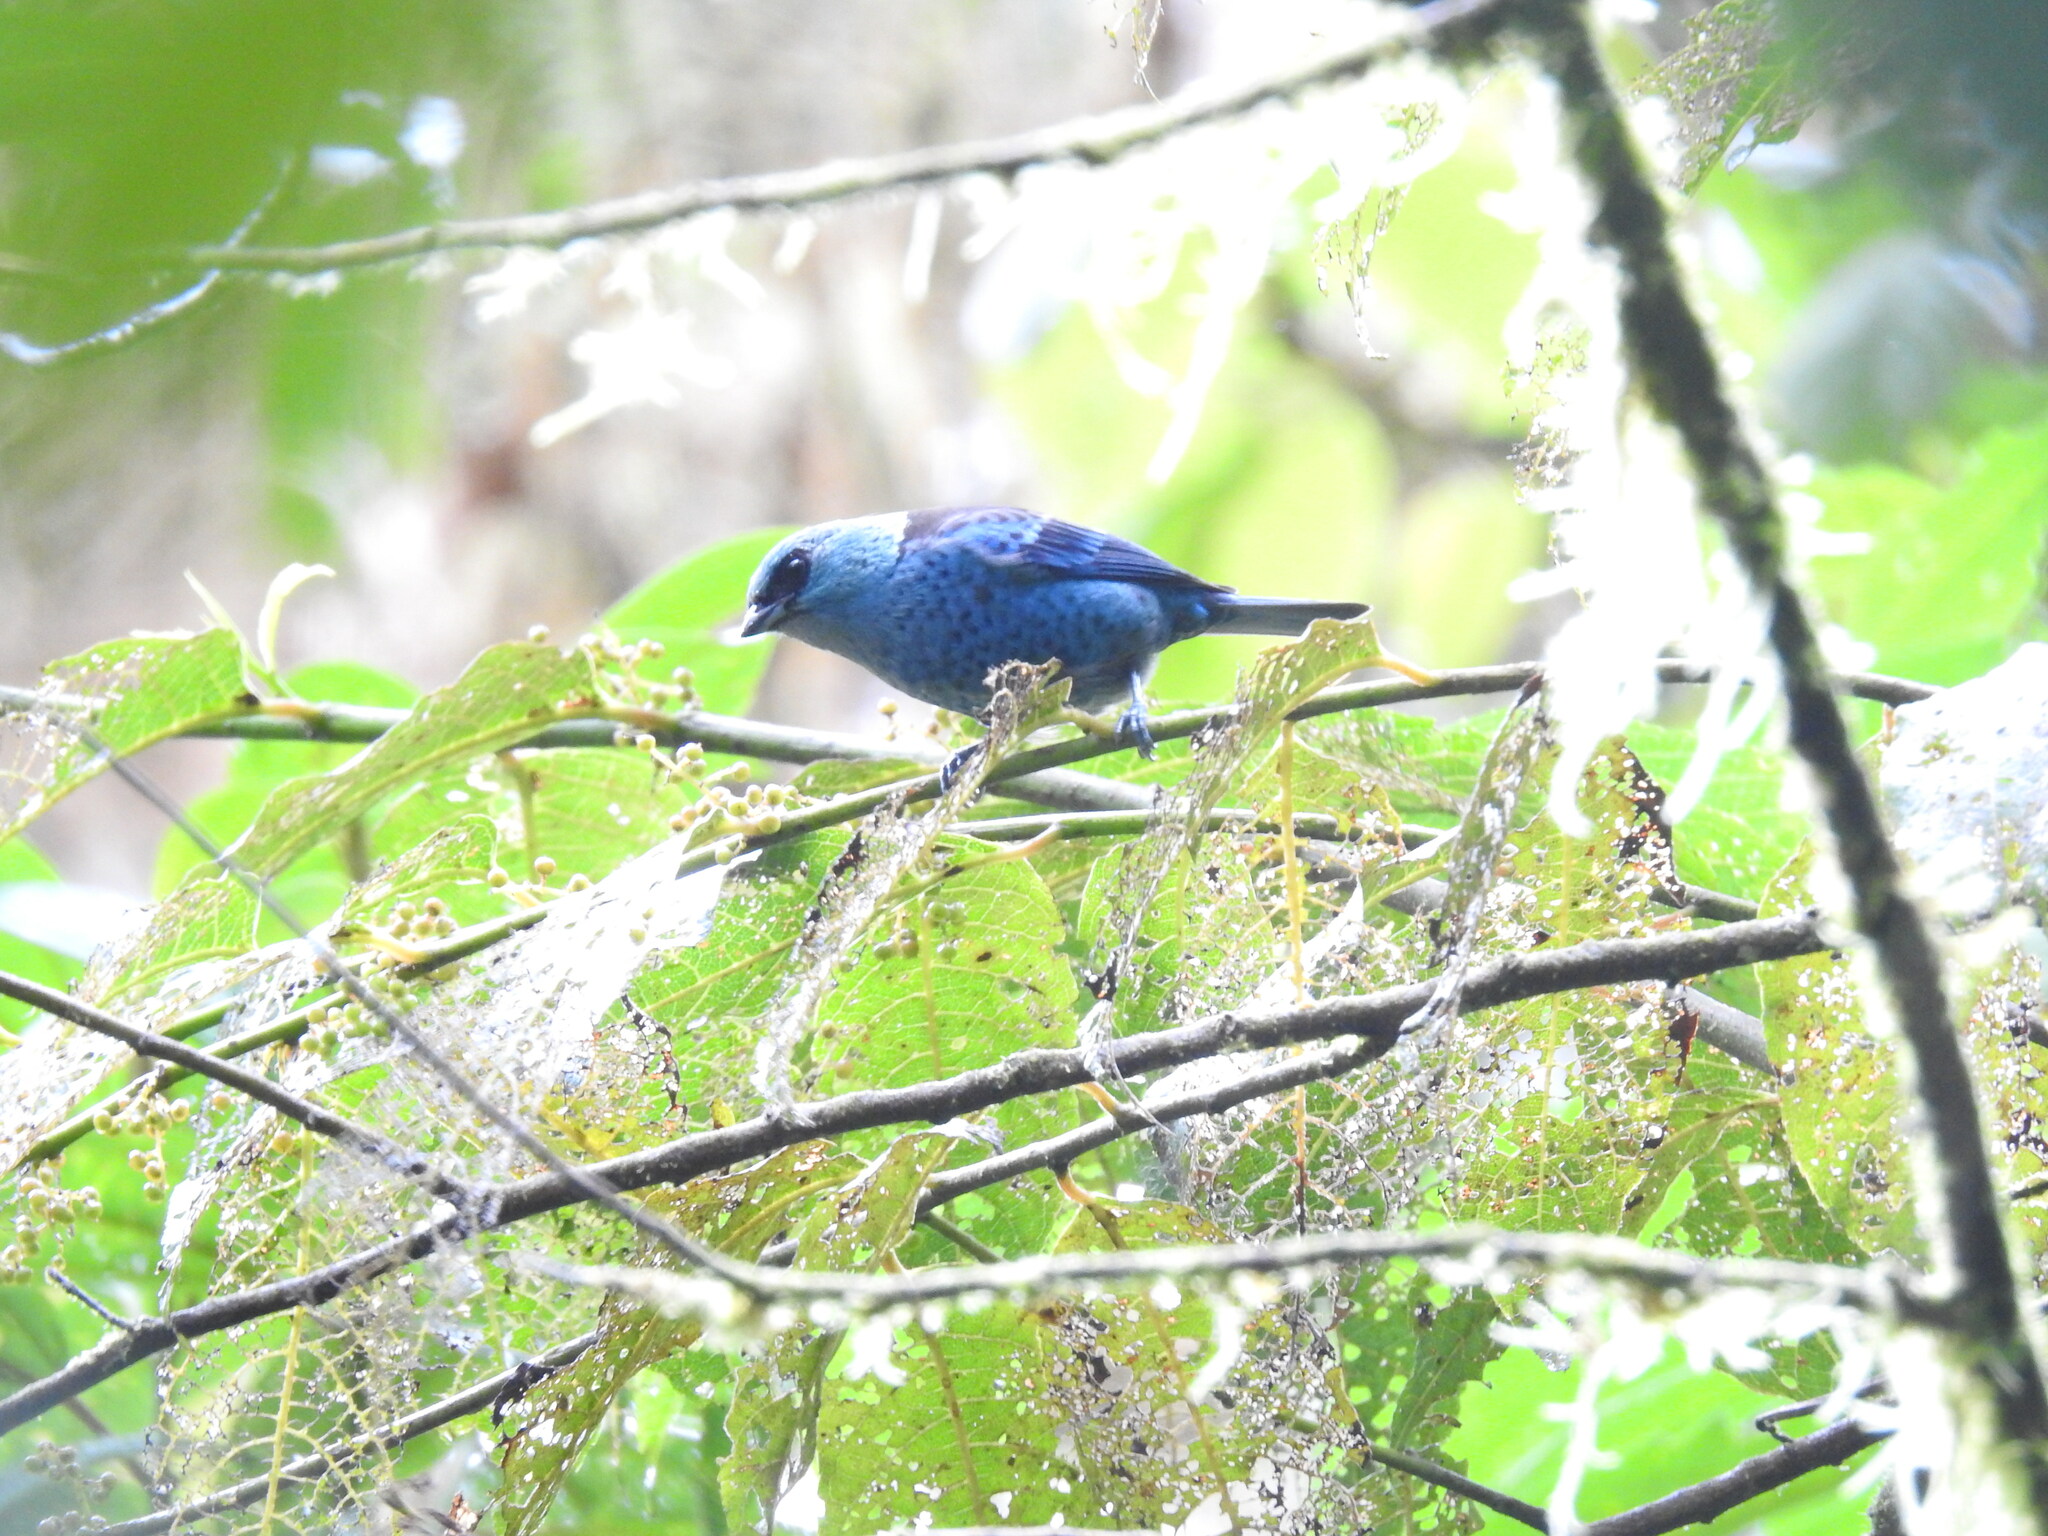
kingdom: Animalia
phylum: Chordata
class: Aves
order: Passeriformes
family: Thraupidae
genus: Tangara
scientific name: Tangara vassorii
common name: Blue-and-black tanager
